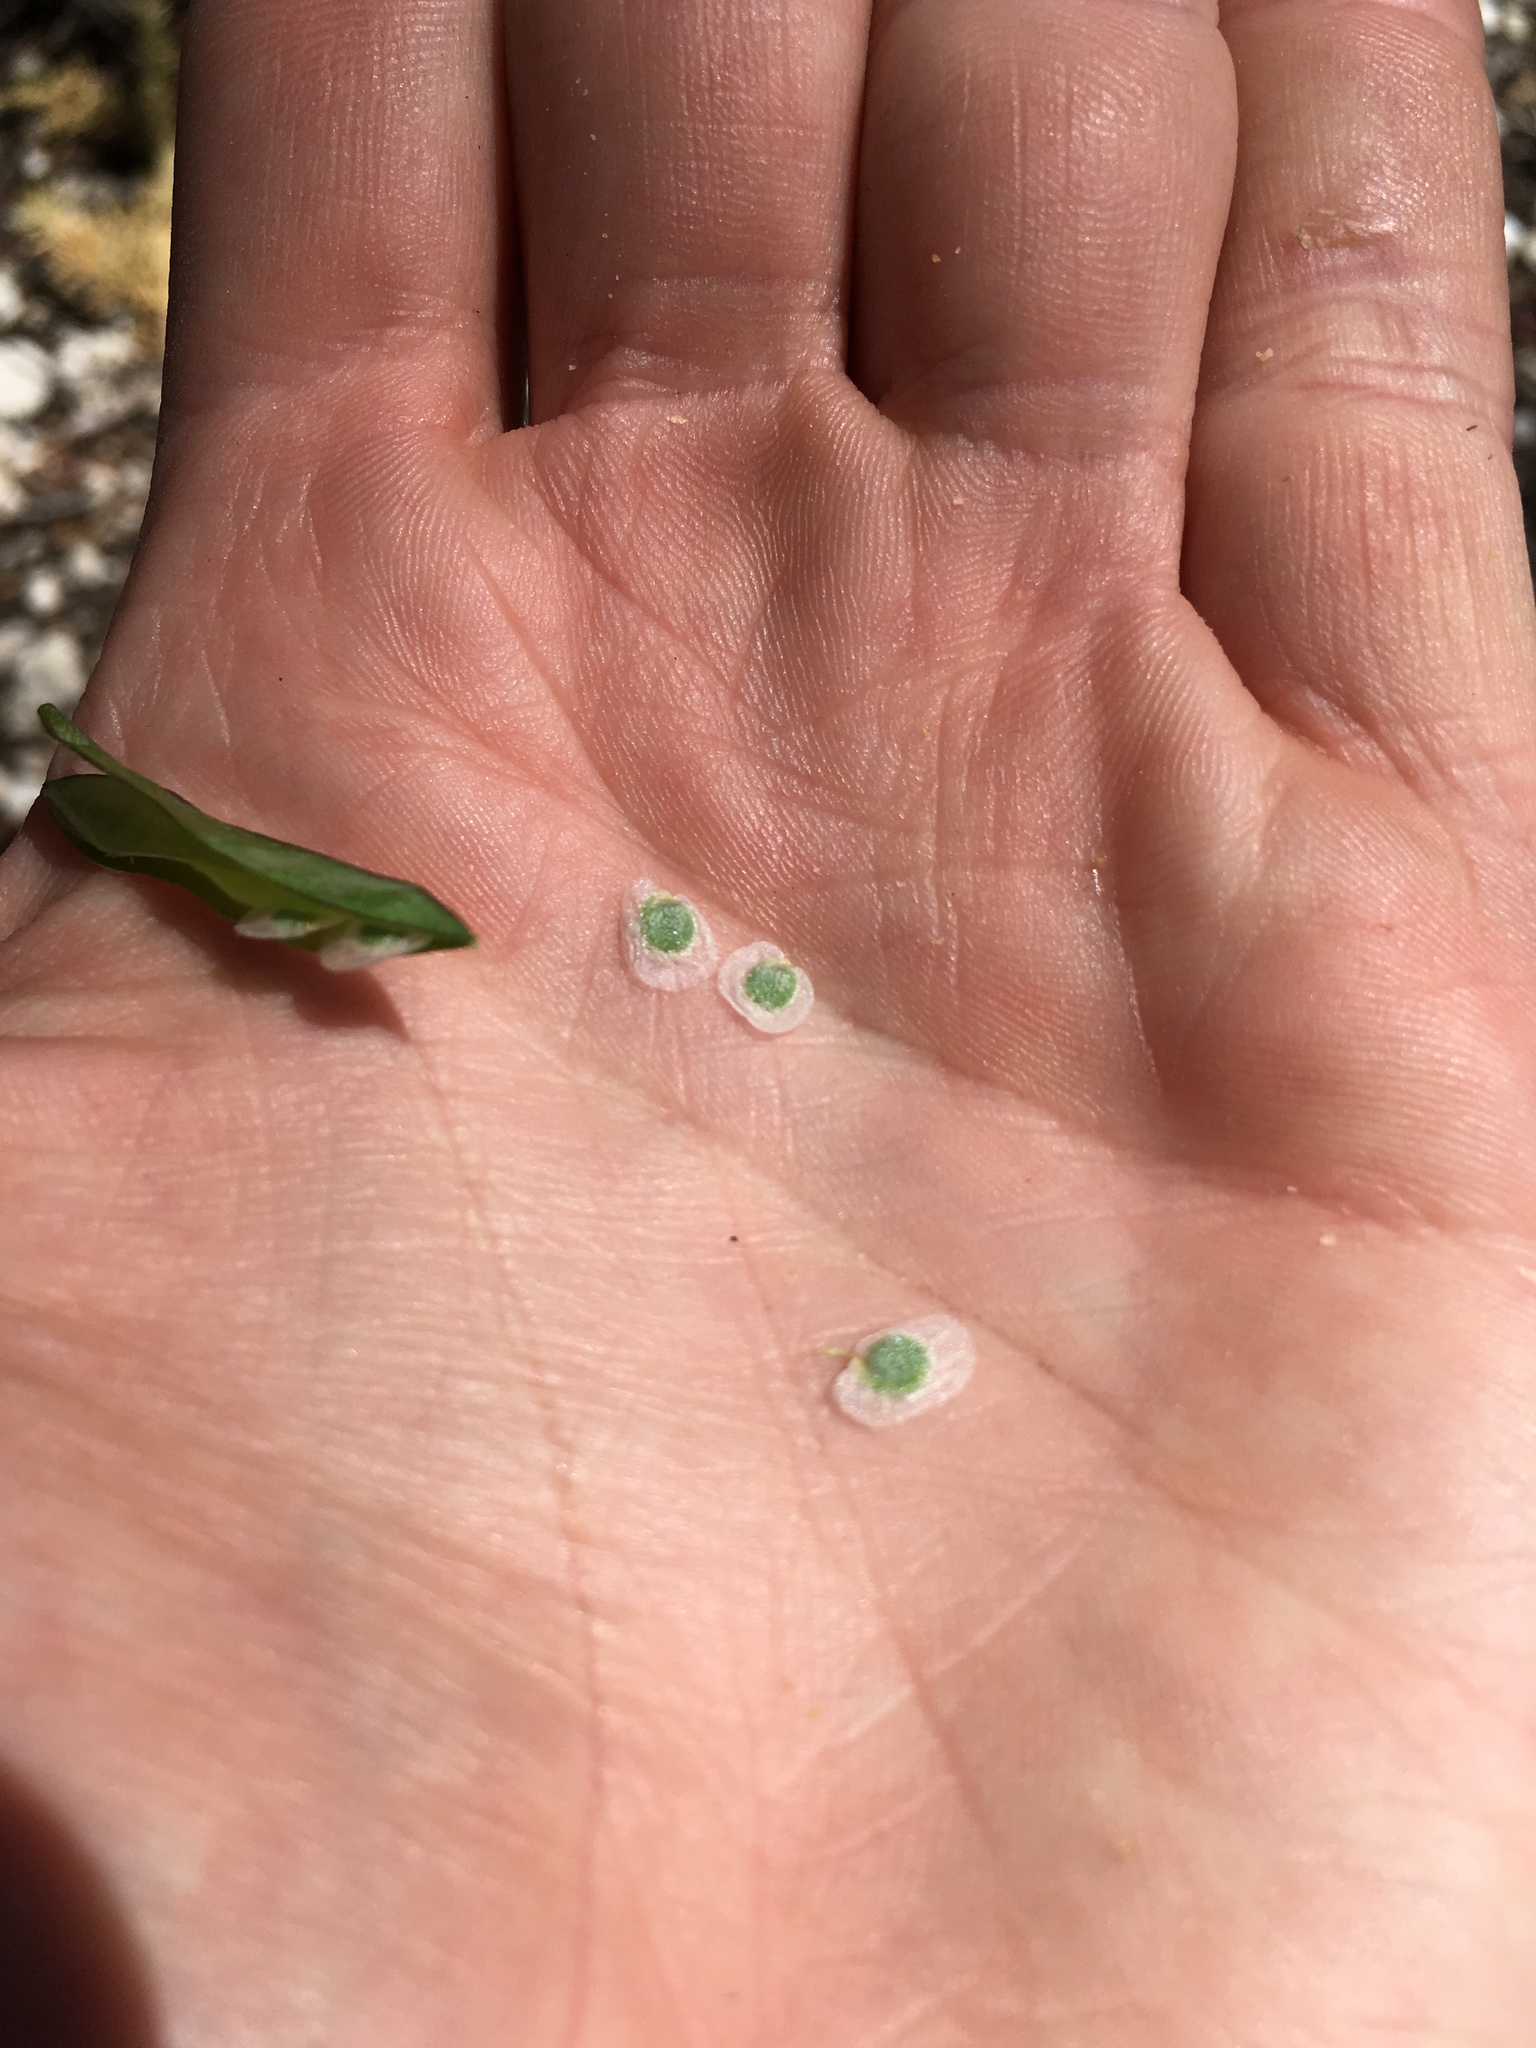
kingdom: Plantae
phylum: Tracheophyta
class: Magnoliopsida
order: Brassicales
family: Brassicaceae
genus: Boechera
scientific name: Boechera platysperma
